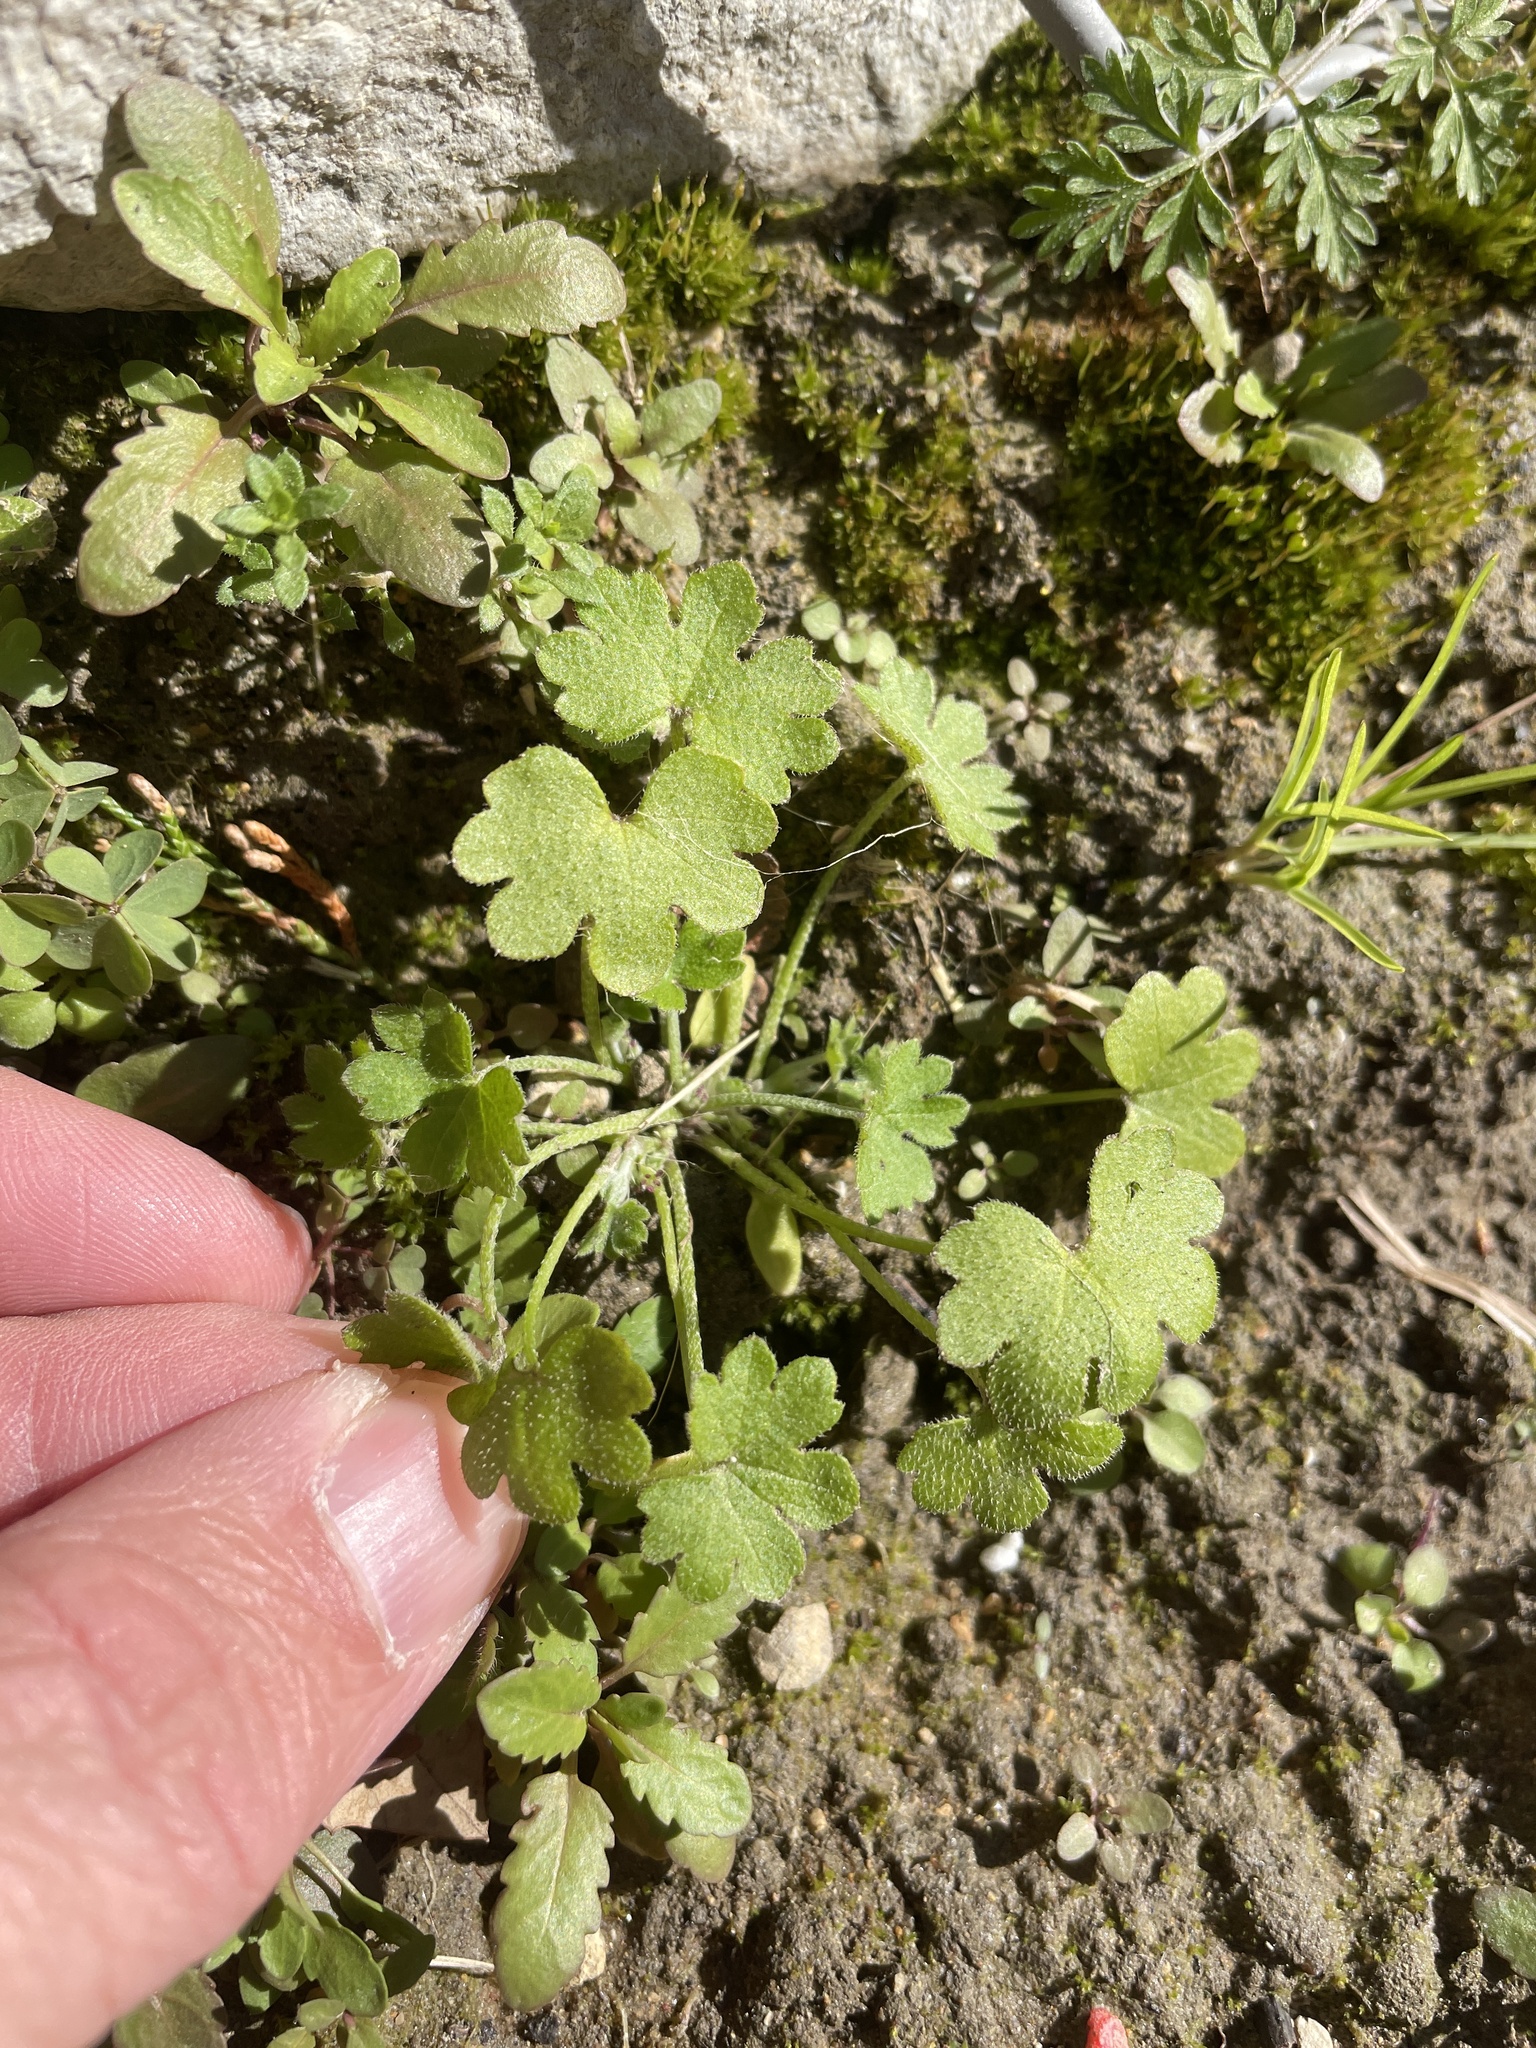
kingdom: Plantae
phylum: Tracheophyta
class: Magnoliopsida
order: Apiales
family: Apiaceae
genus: Bowlesia
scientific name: Bowlesia incana
